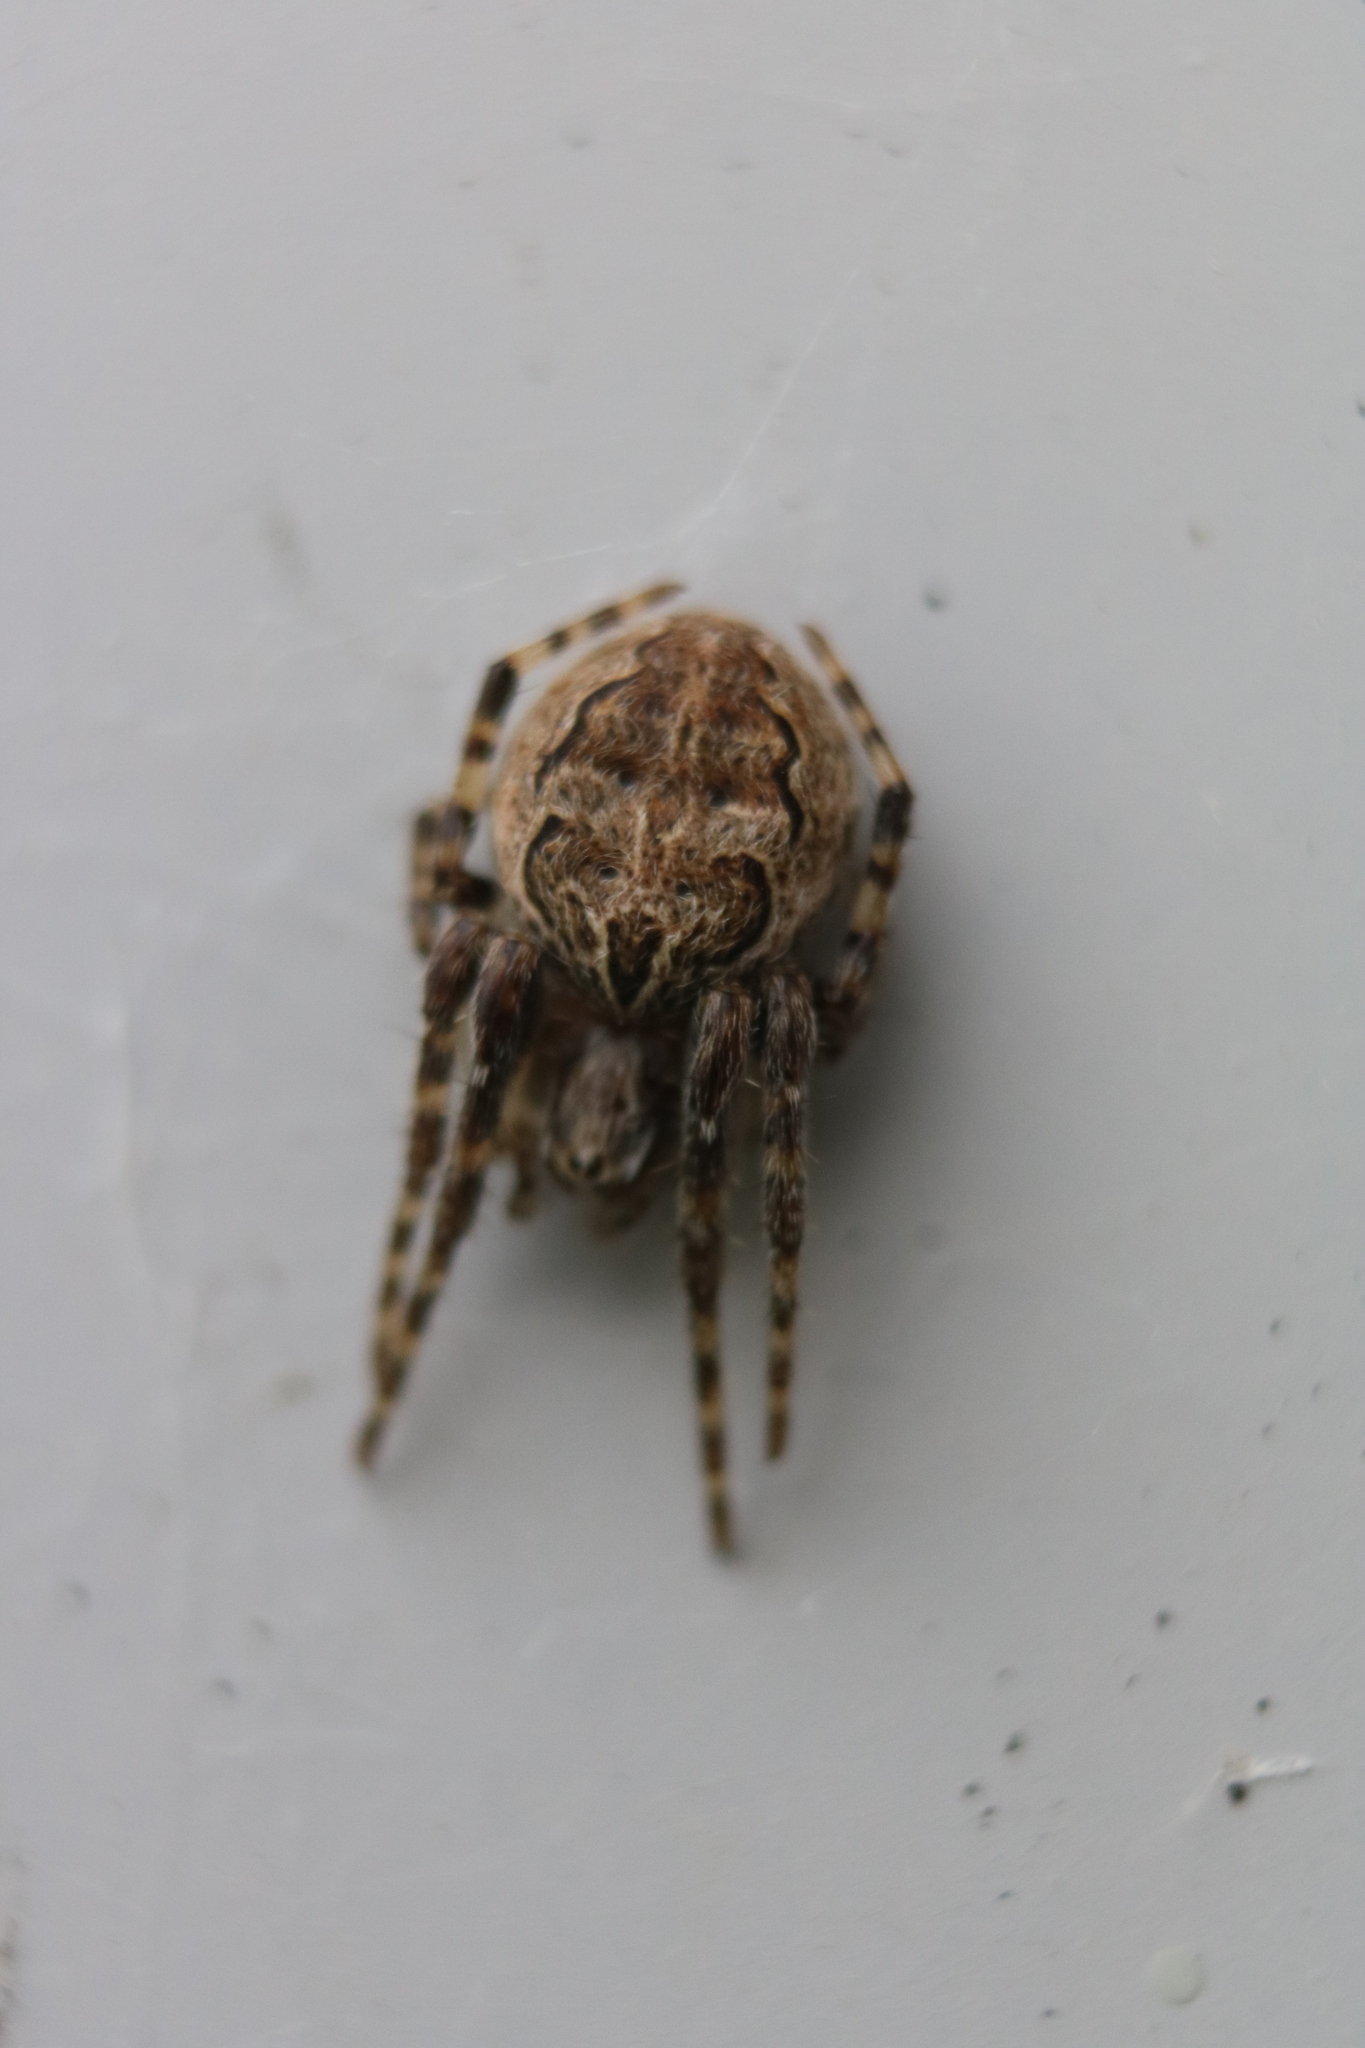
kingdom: Animalia
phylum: Arthropoda
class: Arachnida
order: Araneae
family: Araneidae
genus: Larinioides
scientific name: Larinioides sclopetarius
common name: Bridge orbweaver
